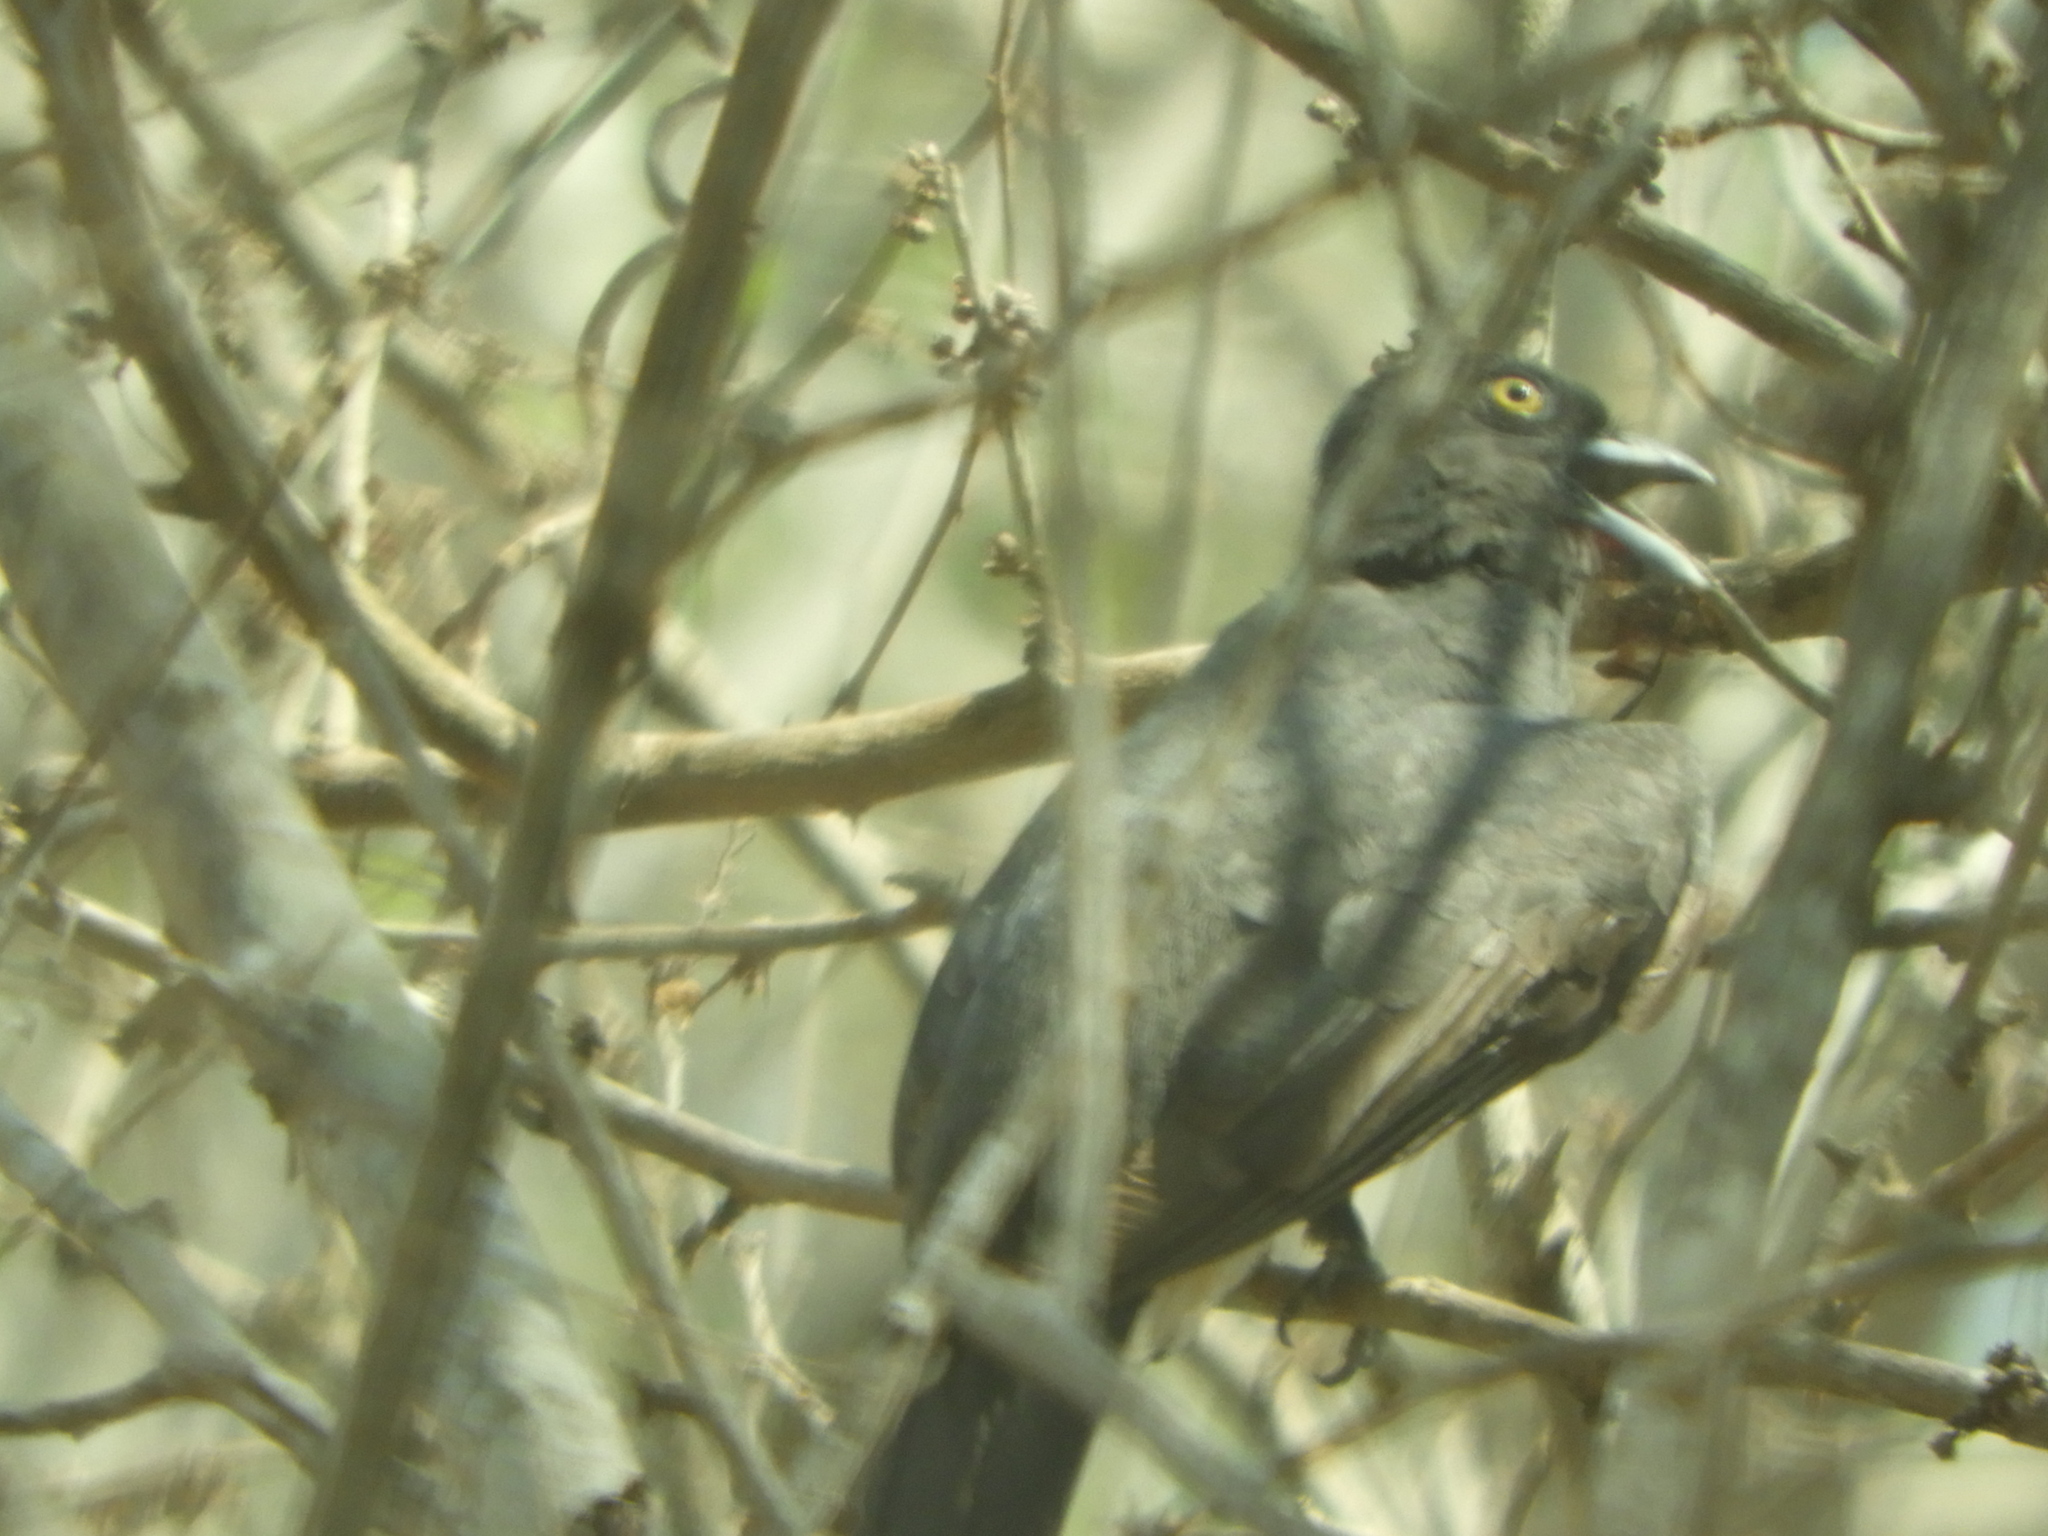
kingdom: Animalia
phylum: Chordata
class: Aves
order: Trogoniformes
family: Trogonidae
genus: Trogon
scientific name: Trogon citreolus
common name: Citreoline trogon
